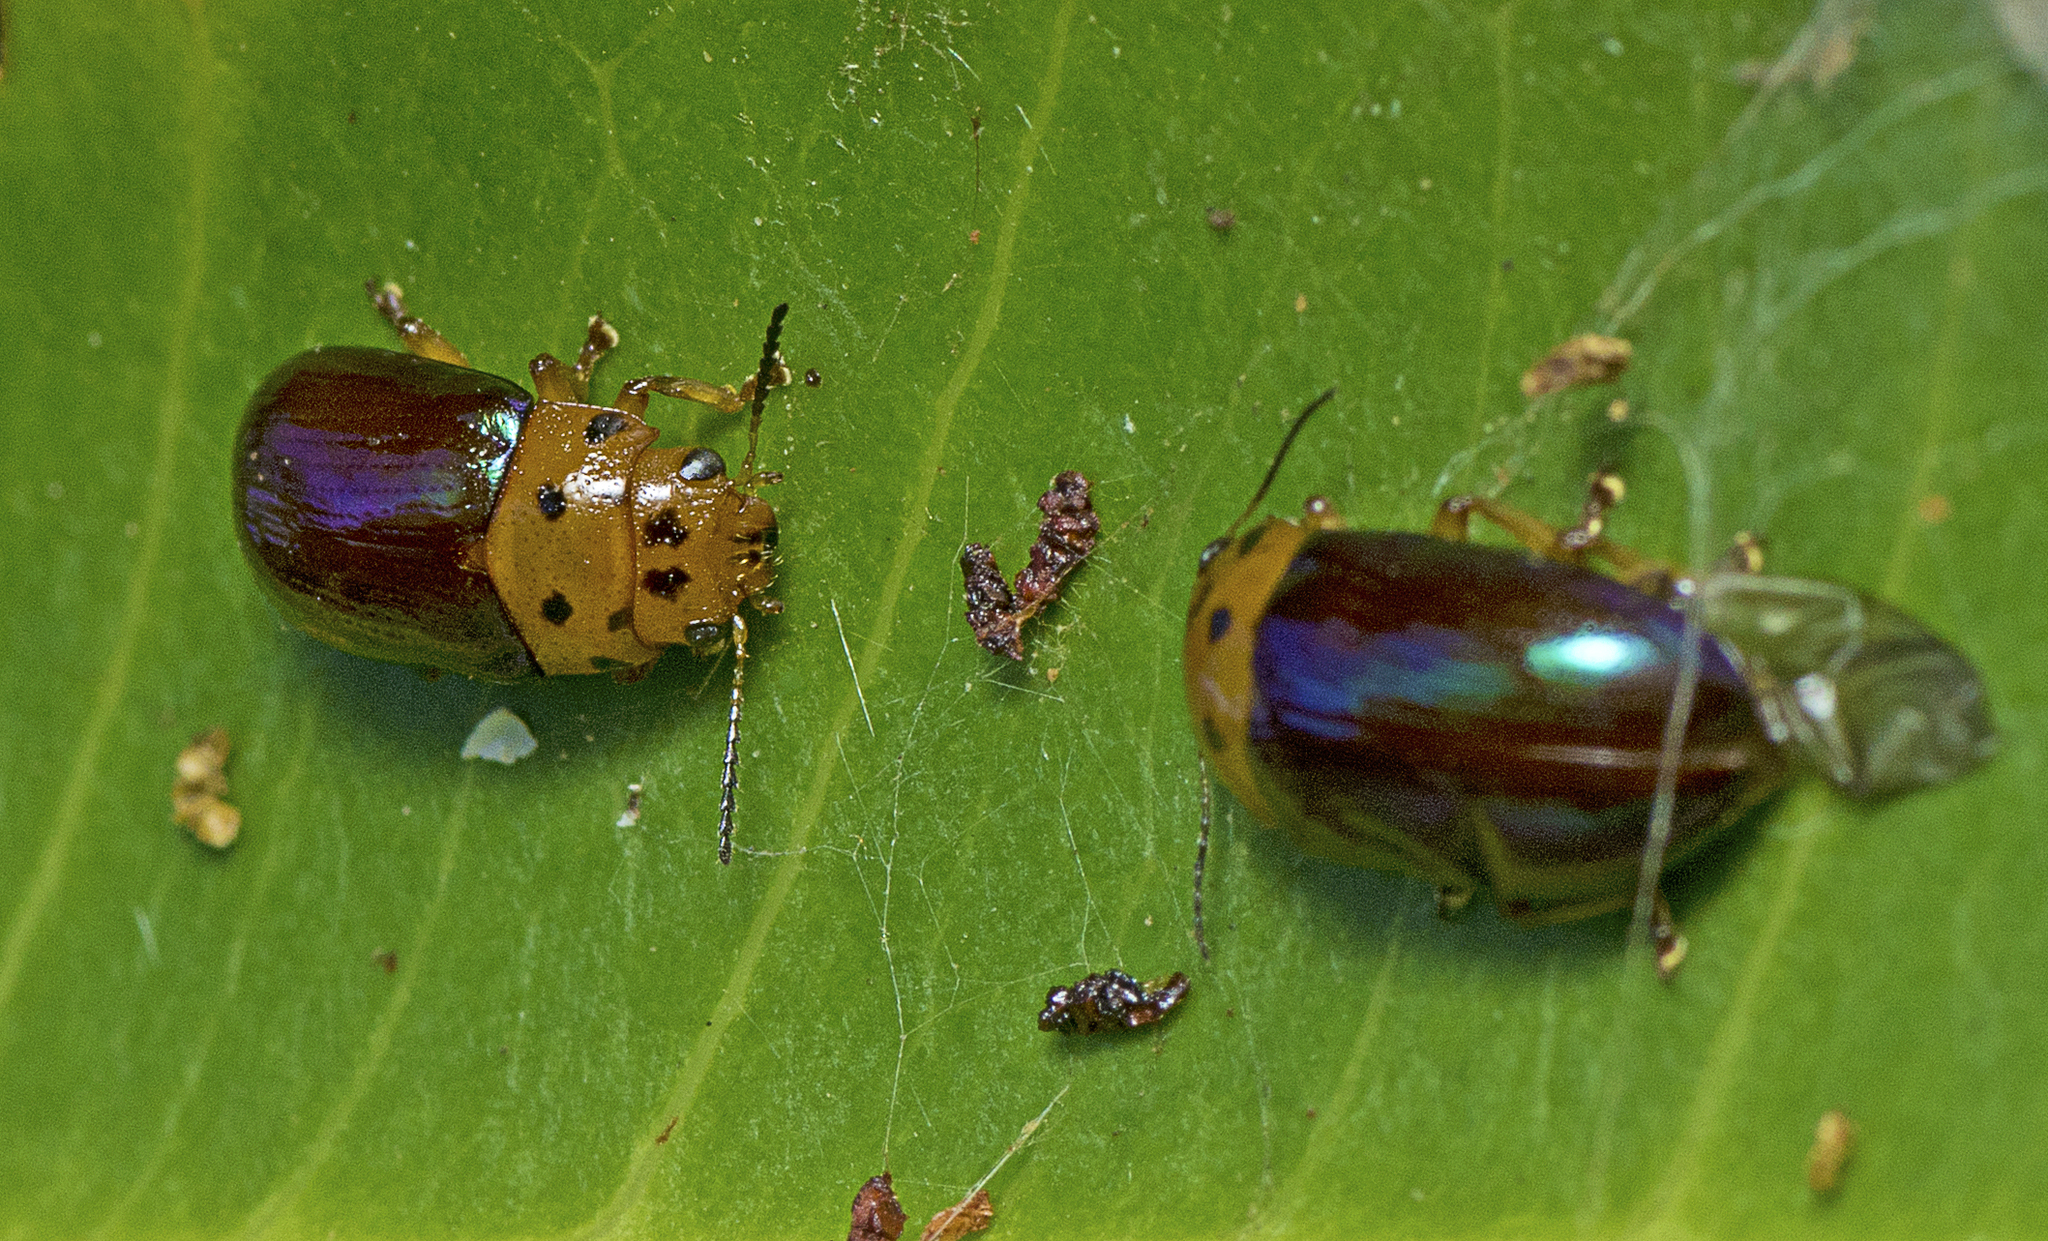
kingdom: Animalia
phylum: Arthropoda
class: Insecta
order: Coleoptera
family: Chrysomelidae
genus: Platymela
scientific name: Platymela
